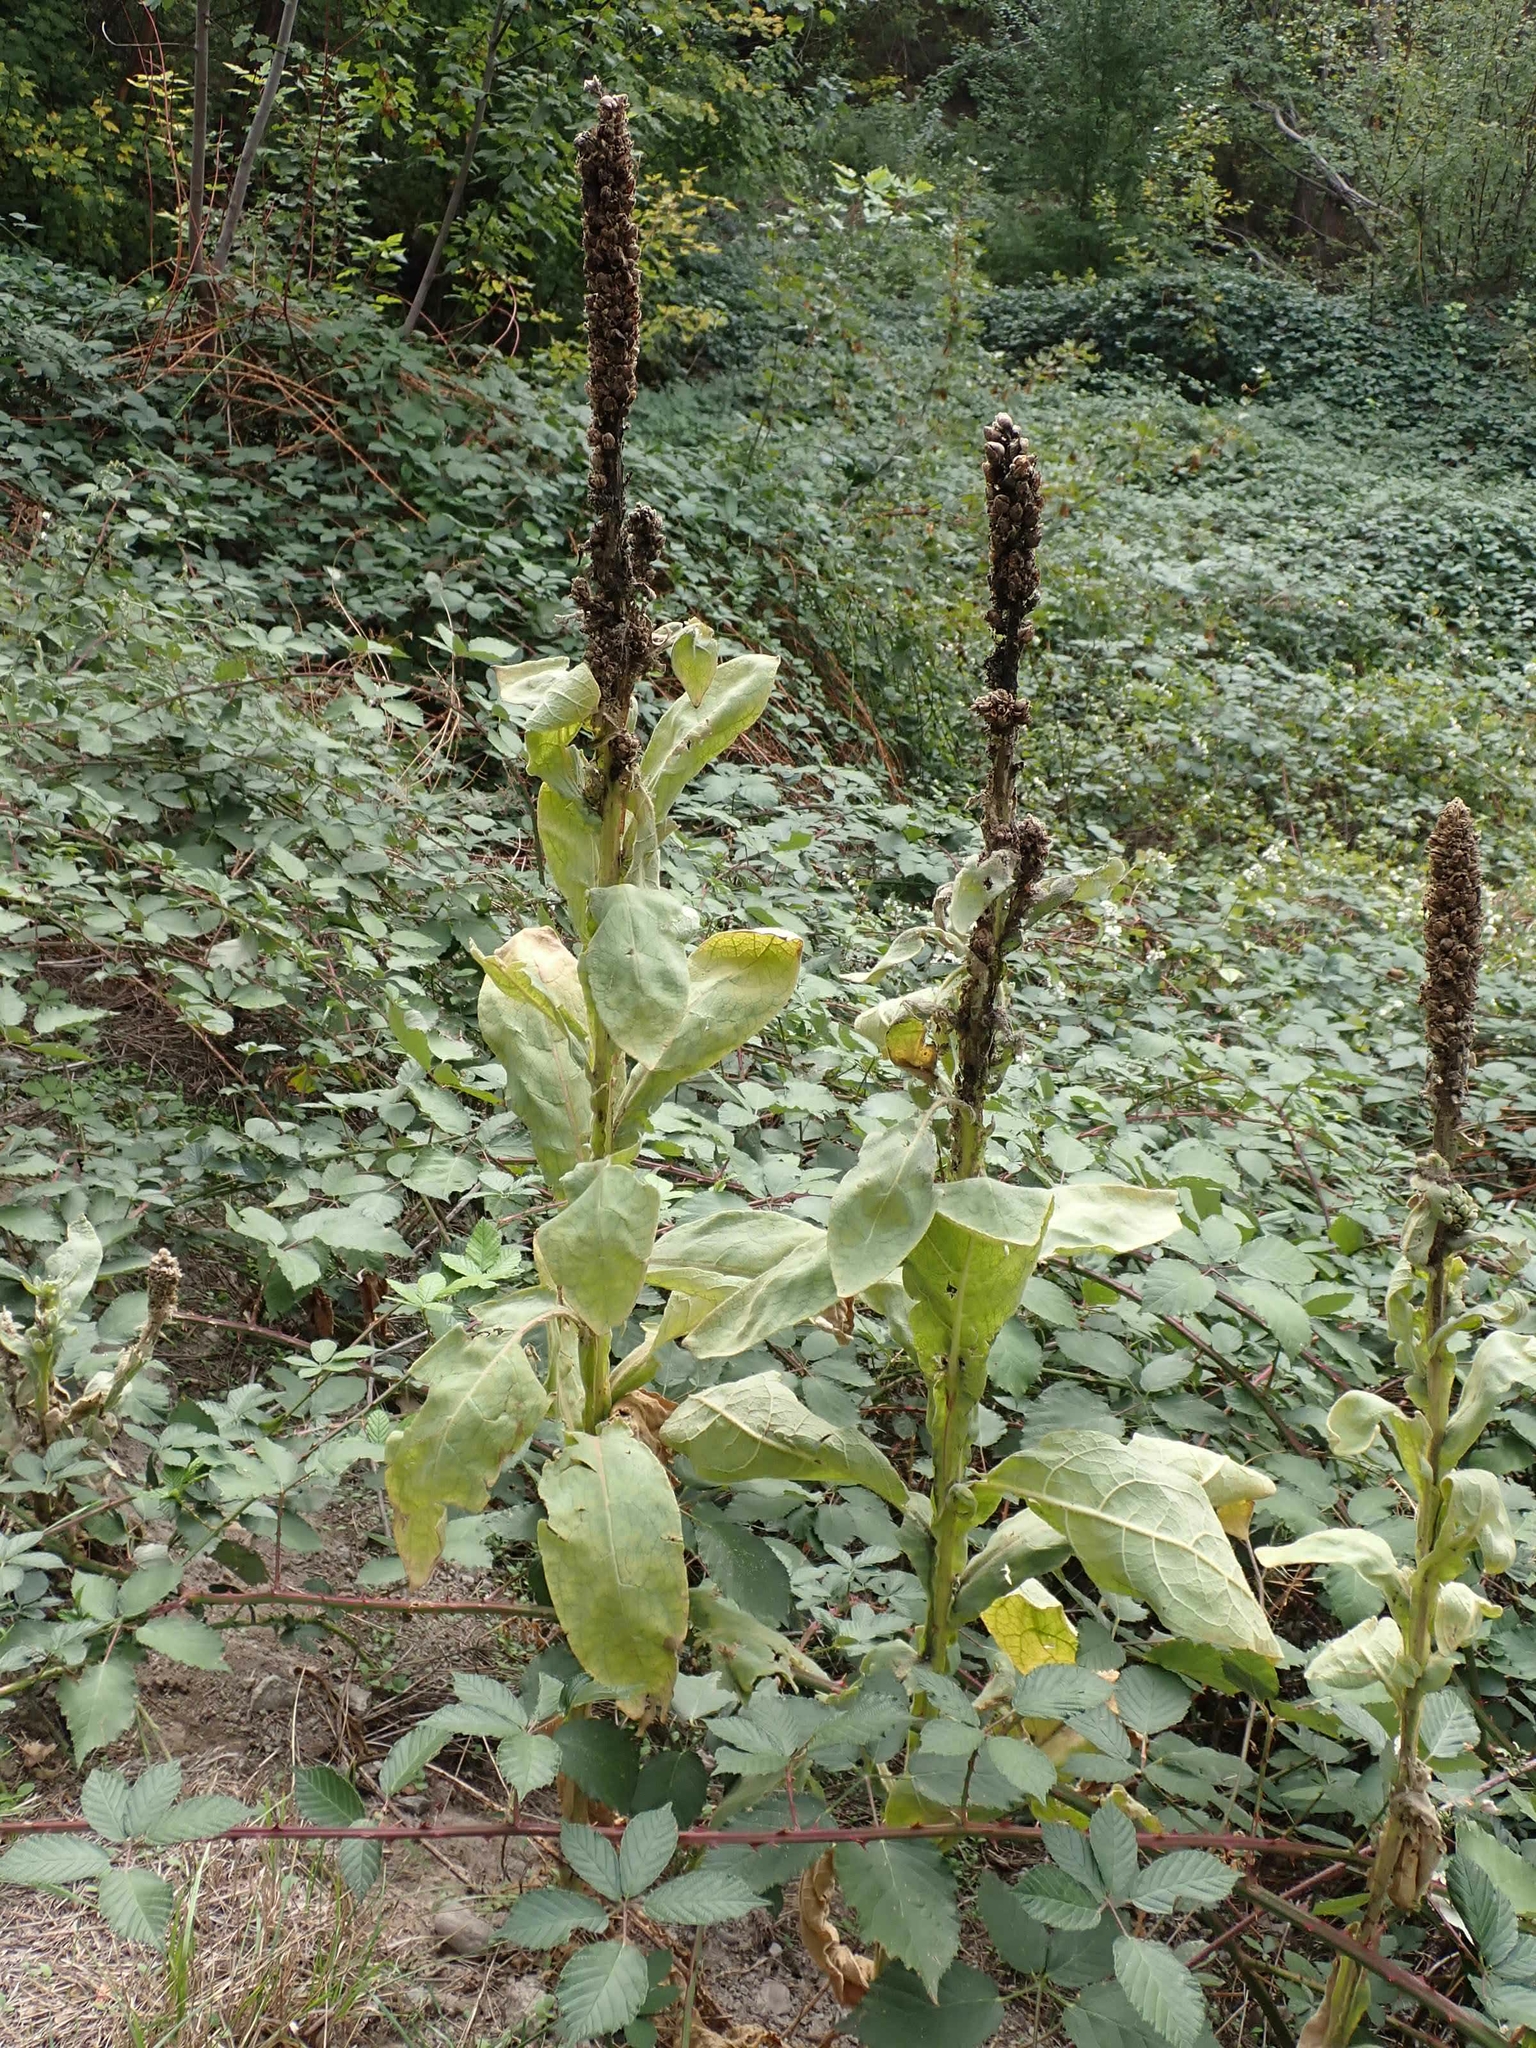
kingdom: Plantae
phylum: Tracheophyta
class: Magnoliopsida
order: Lamiales
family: Scrophulariaceae
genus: Verbascum
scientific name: Verbascum thapsus
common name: Common mullein
